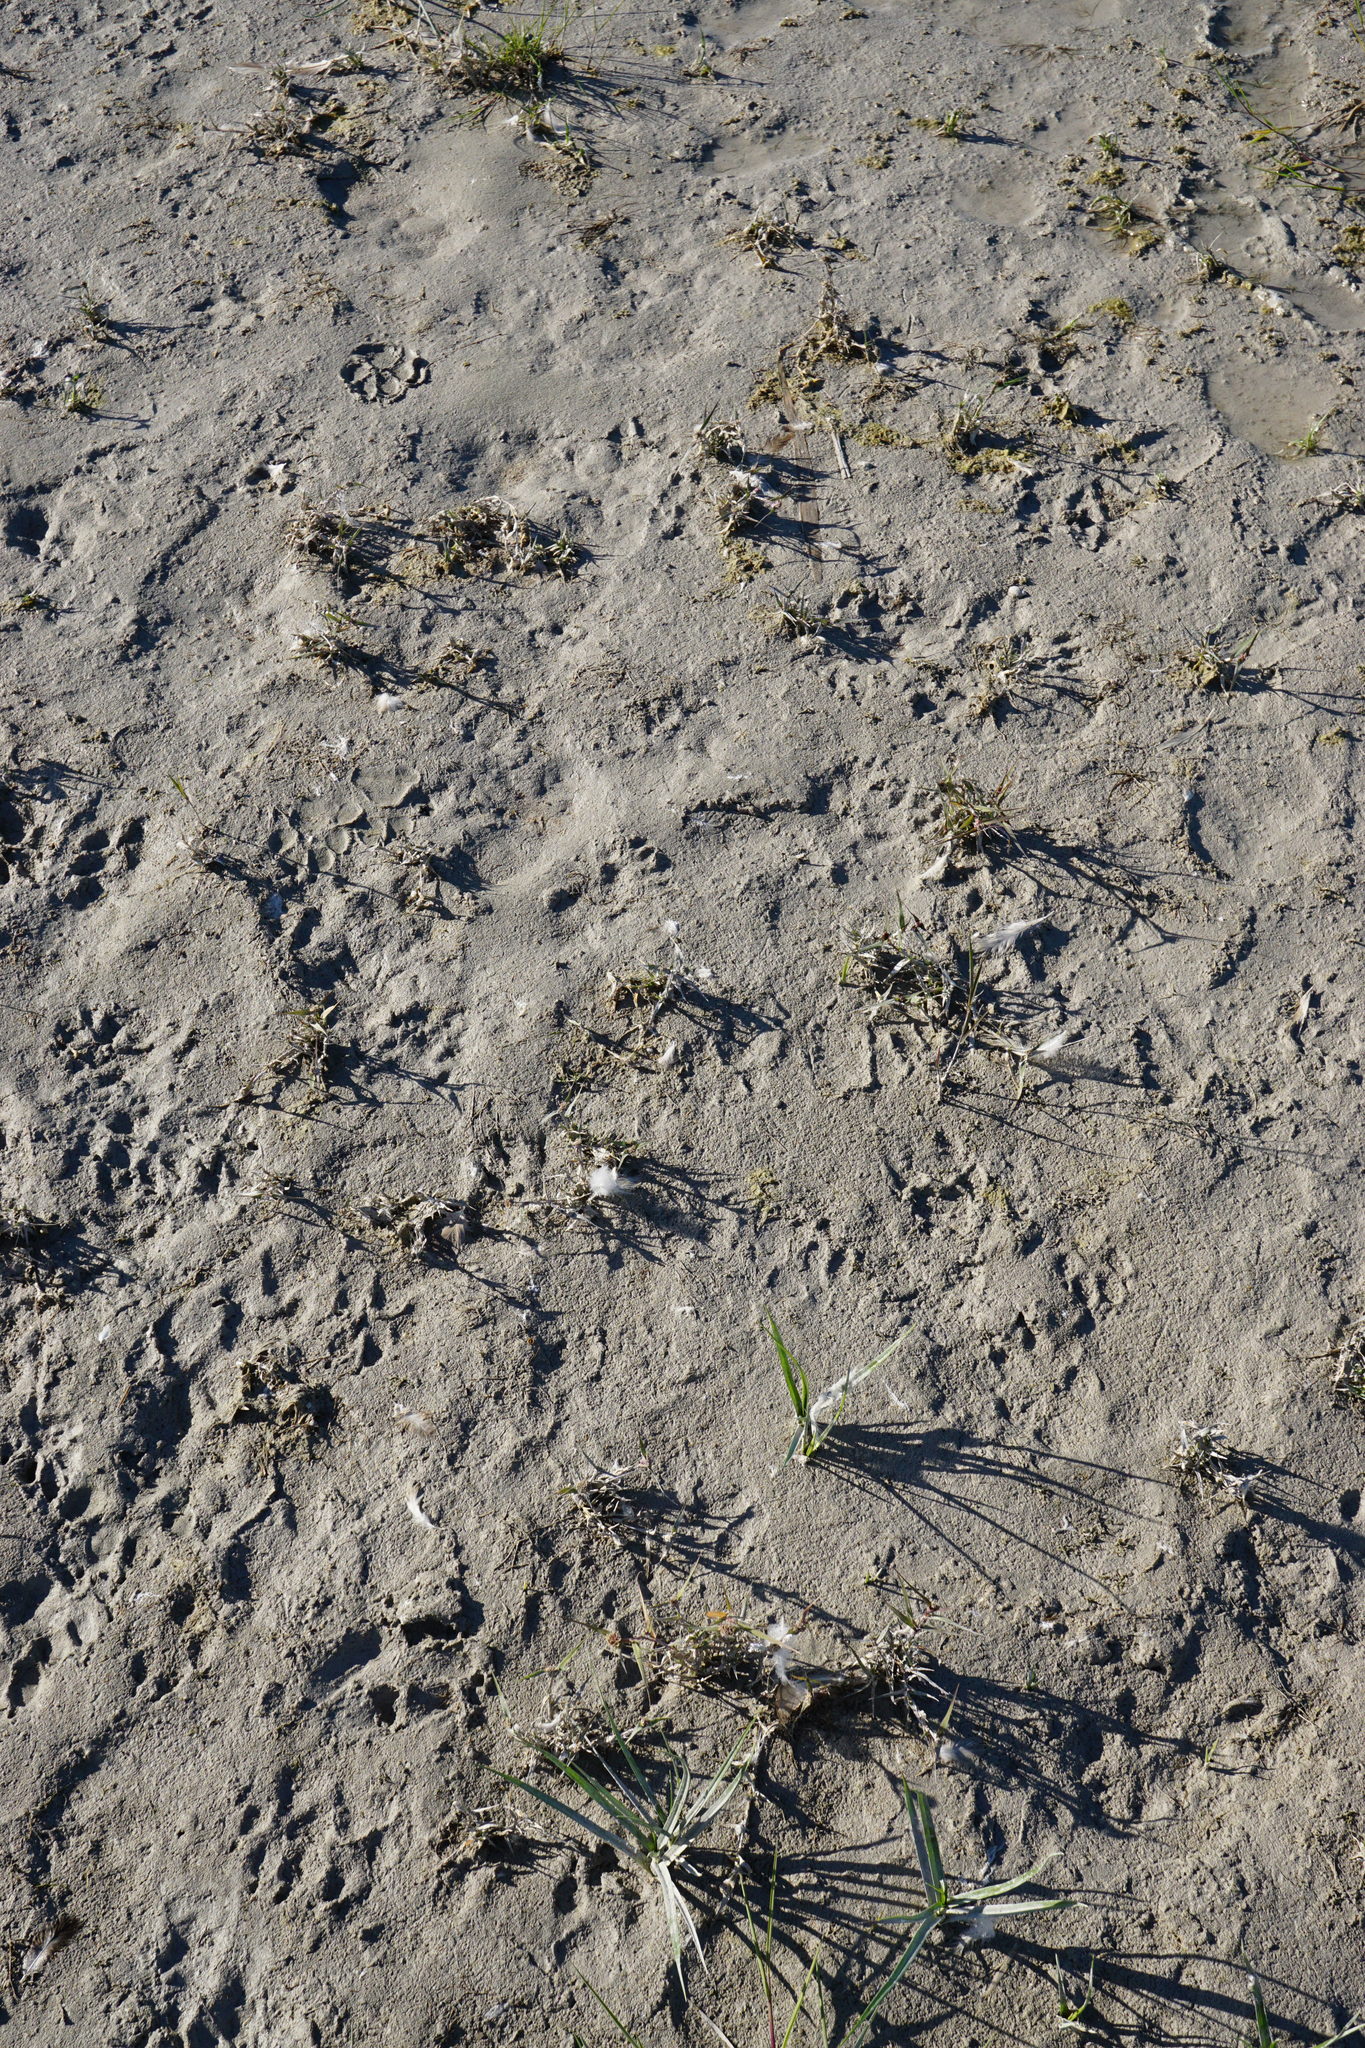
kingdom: Plantae
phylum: Tracheophyta
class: Liliopsida
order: Poales
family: Poaceae
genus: Sporobolus
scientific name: Sporobolus aculeatus
